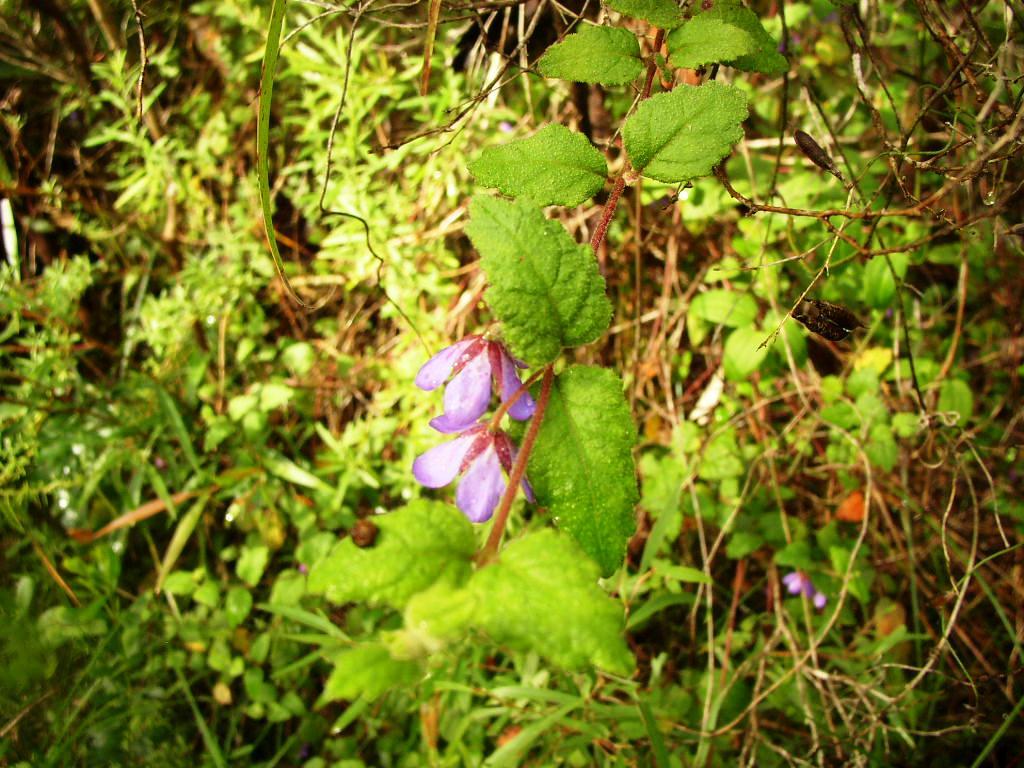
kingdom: Plantae
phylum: Tracheophyta
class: Magnoliopsida
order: Oxalidales
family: Elaeocarpaceae
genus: Tremandra
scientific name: Tremandra stelligera
